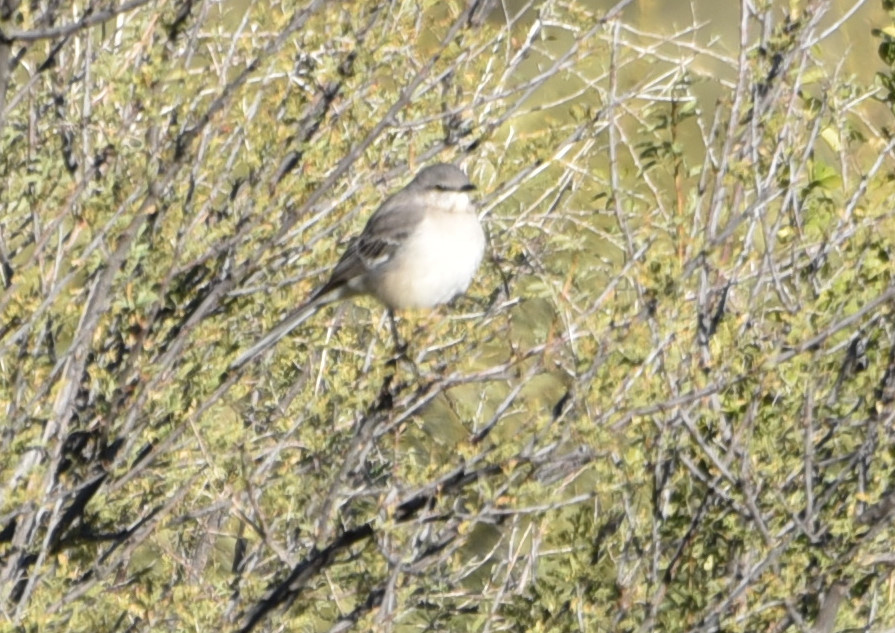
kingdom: Animalia
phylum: Chordata
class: Aves
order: Passeriformes
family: Mimidae
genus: Mimus
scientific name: Mimus polyglottos
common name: Northern mockingbird
